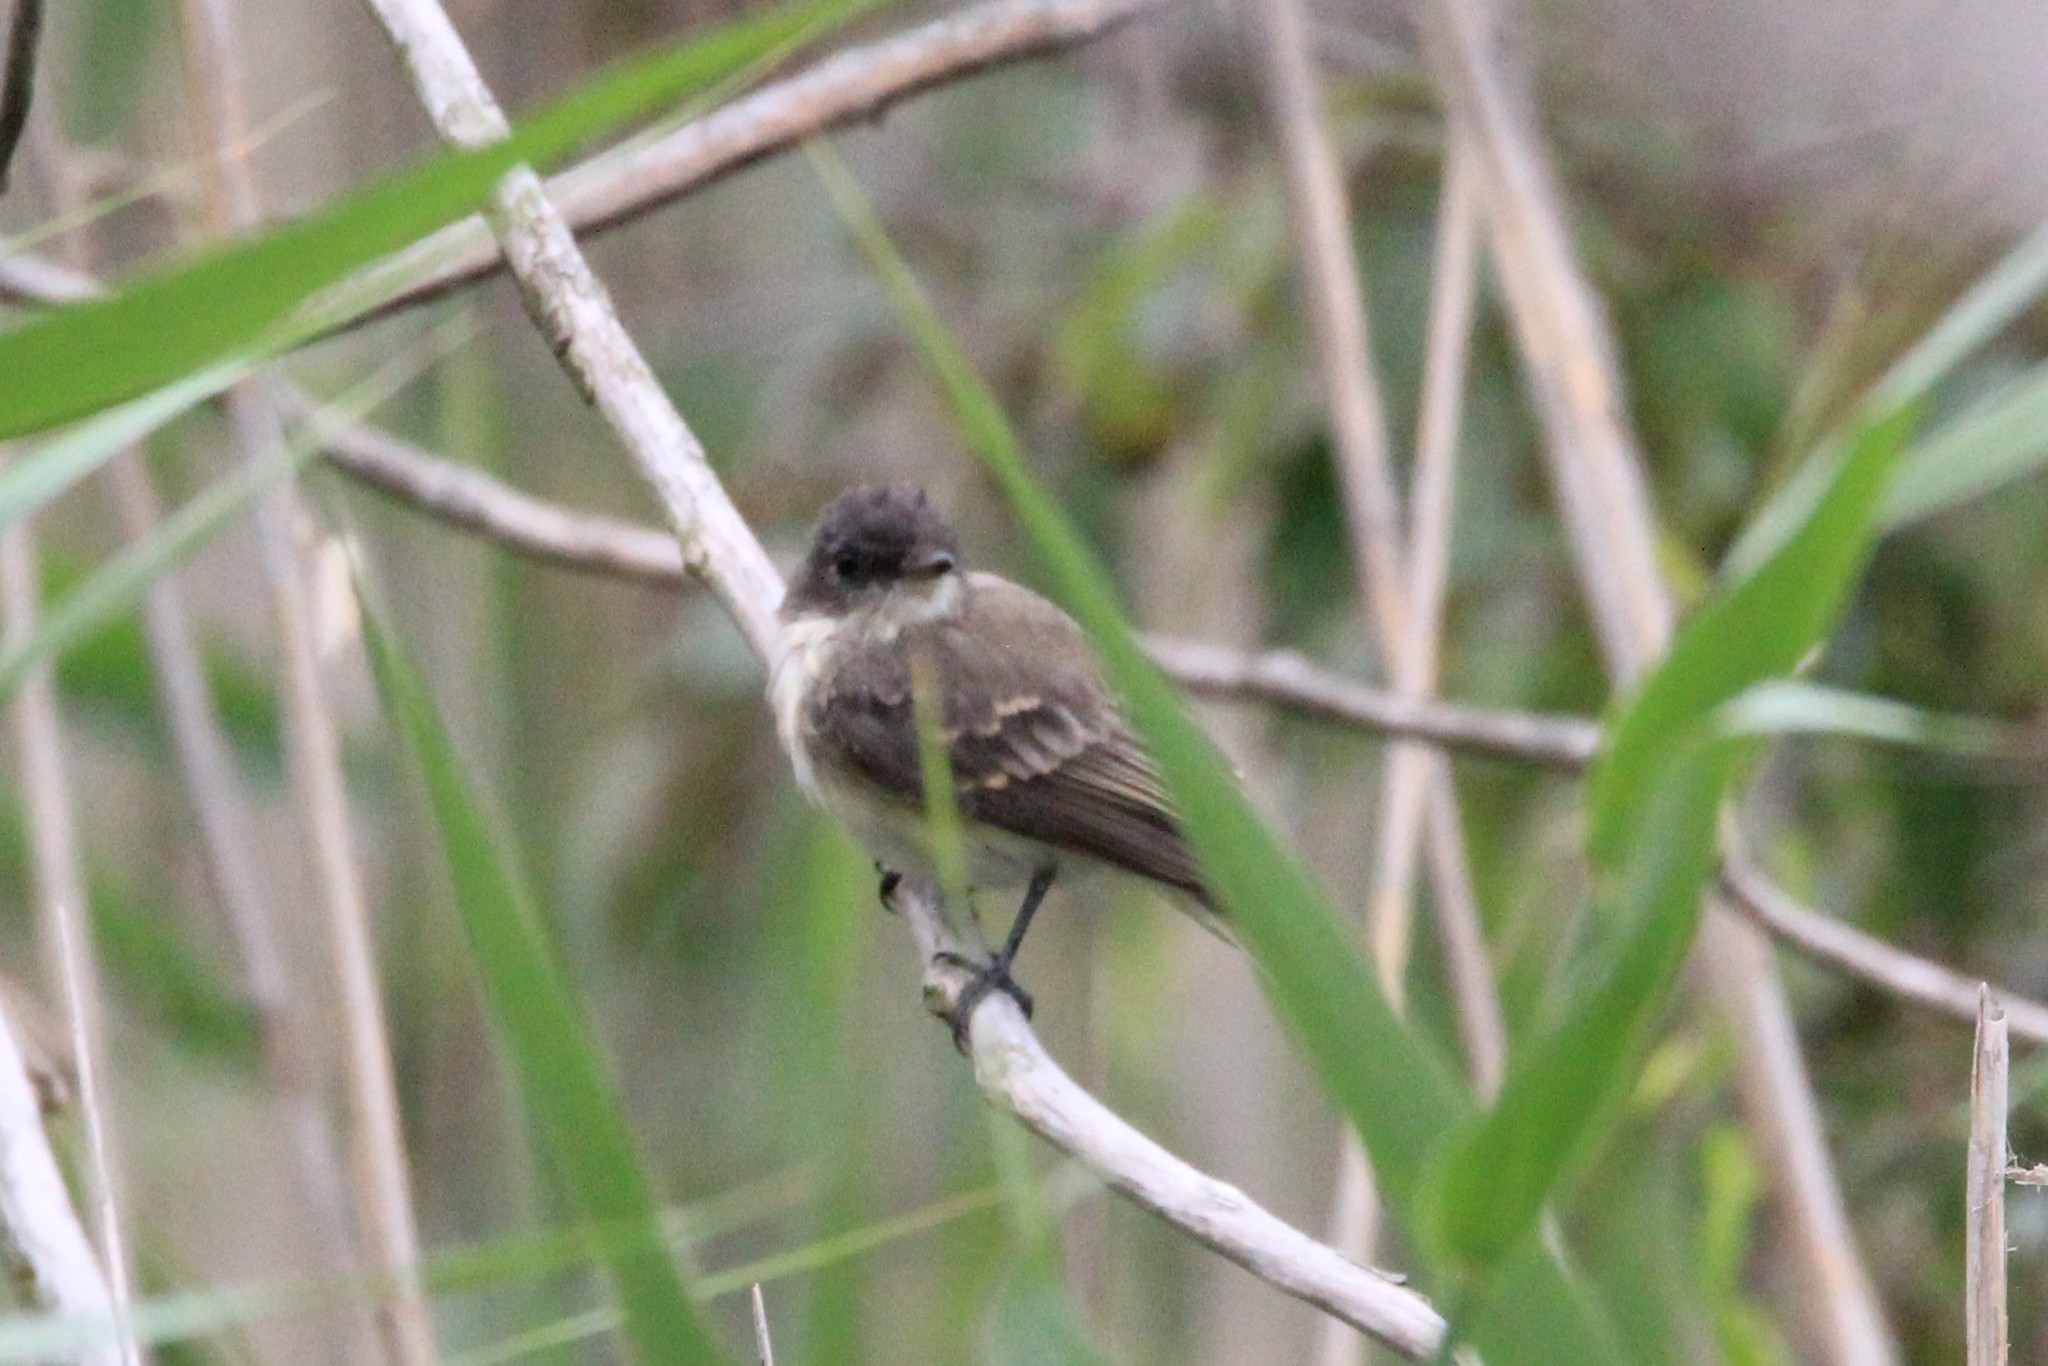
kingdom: Animalia
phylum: Chordata
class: Aves
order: Passeriformes
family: Tyrannidae
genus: Sayornis
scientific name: Sayornis phoebe
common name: Eastern phoebe
